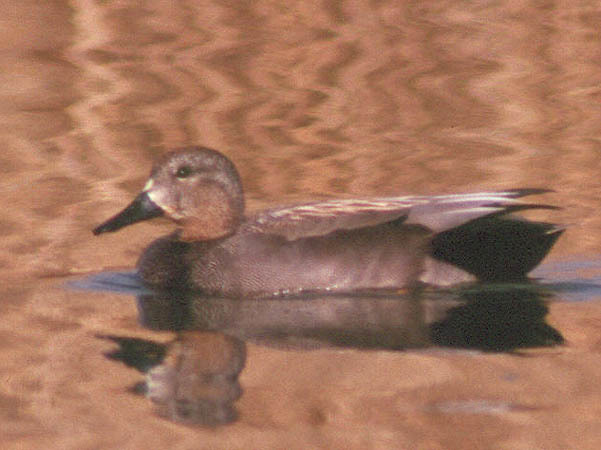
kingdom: Animalia
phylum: Chordata
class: Aves
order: Anseriformes
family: Anatidae
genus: Mareca
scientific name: Mareca strepera
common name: Gadwall
